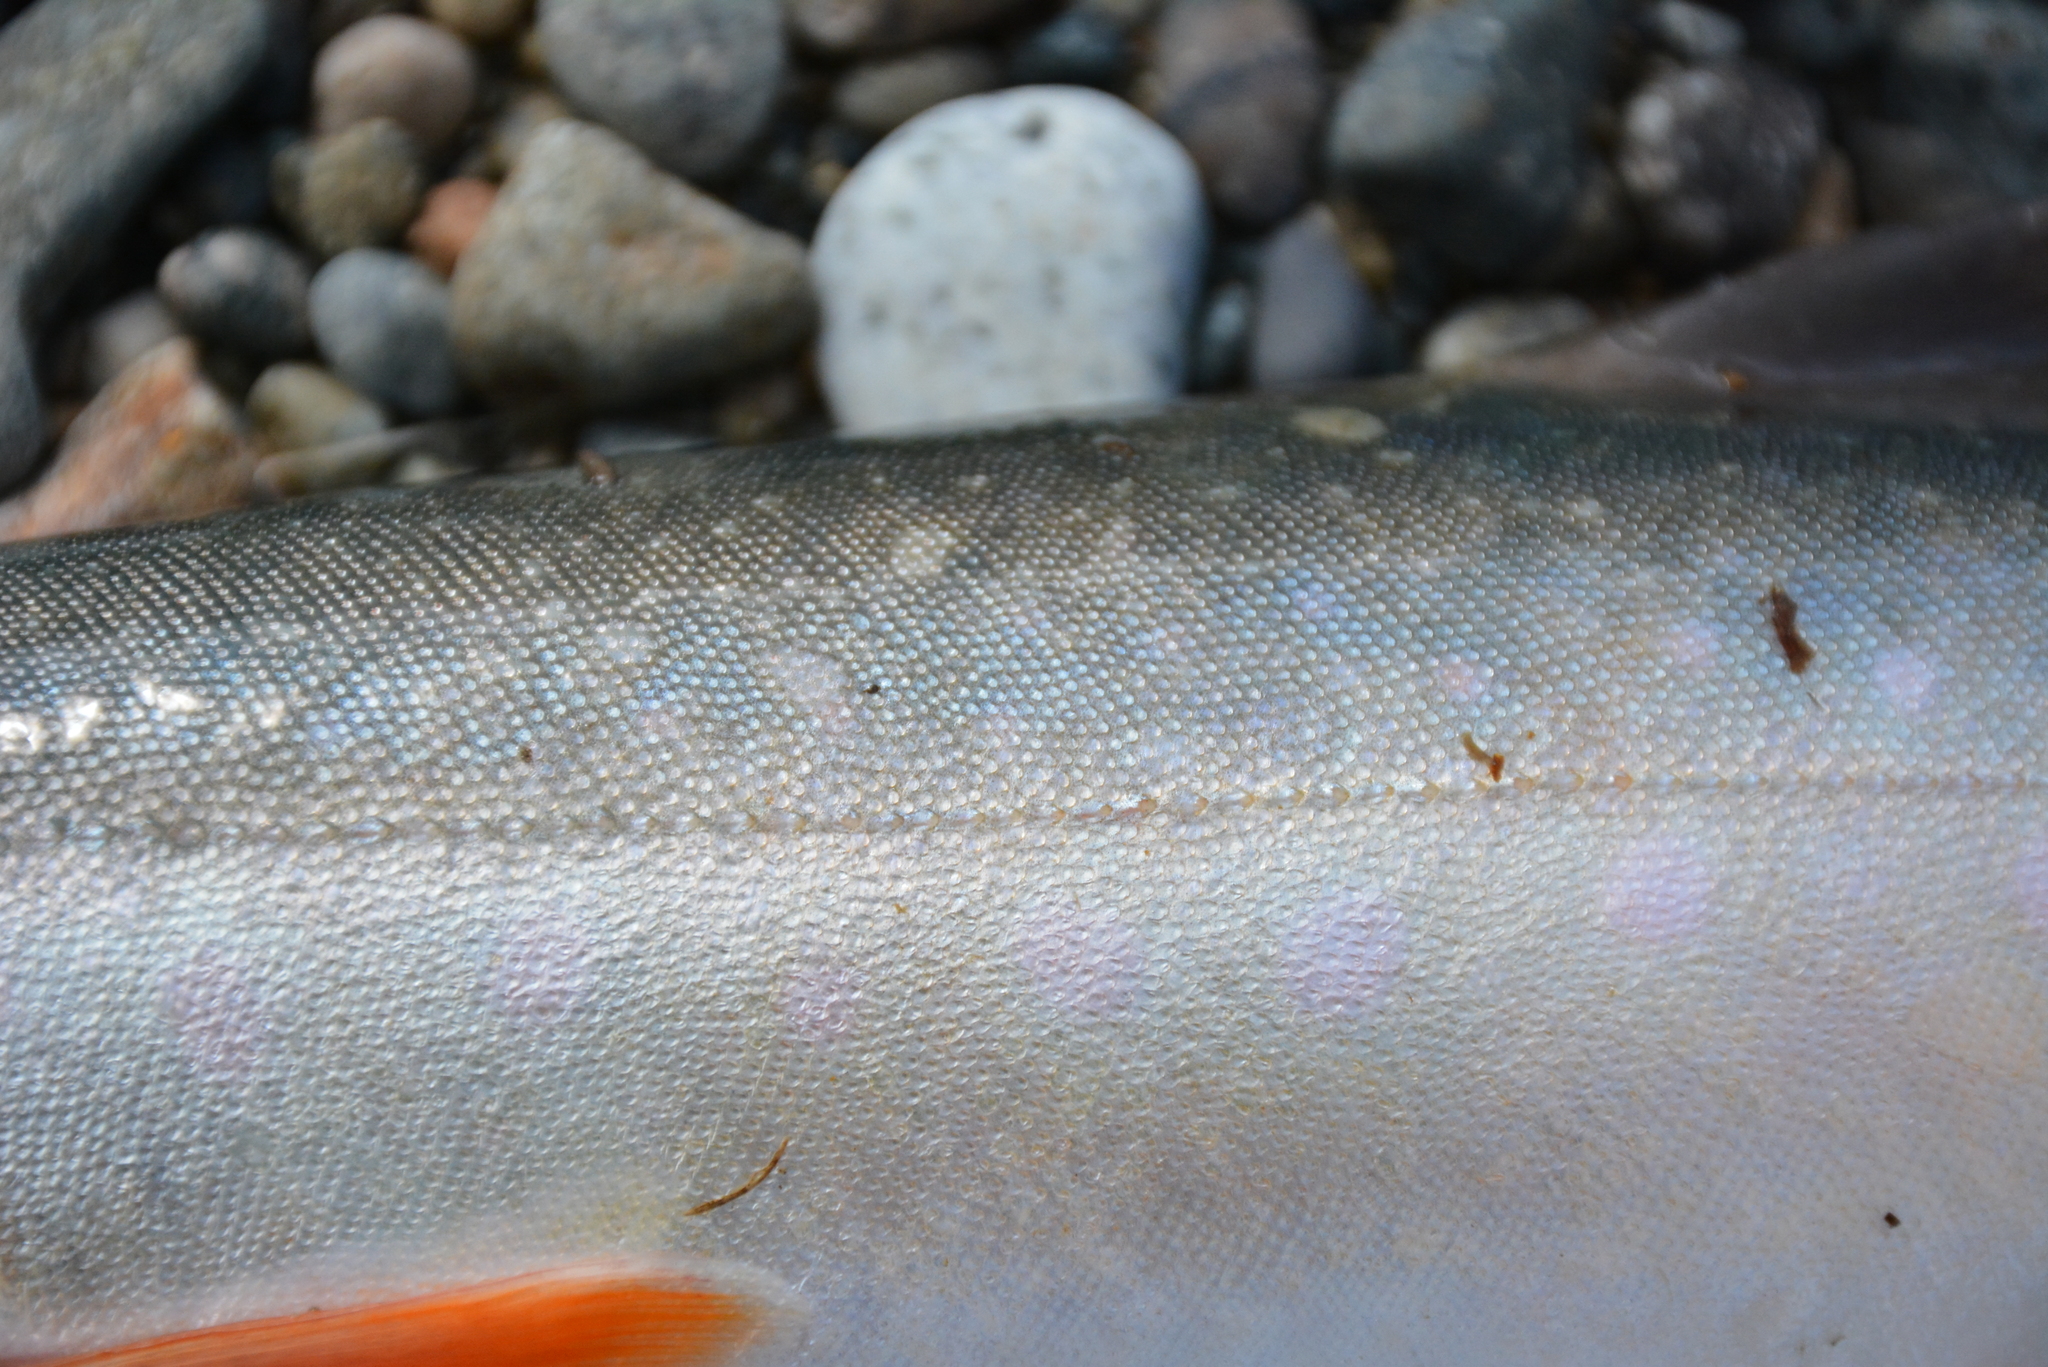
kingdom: Animalia
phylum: Chordata
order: Salmoniformes
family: Salmonidae
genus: Salvelinus
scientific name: Salvelinus alpinus
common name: Charr
